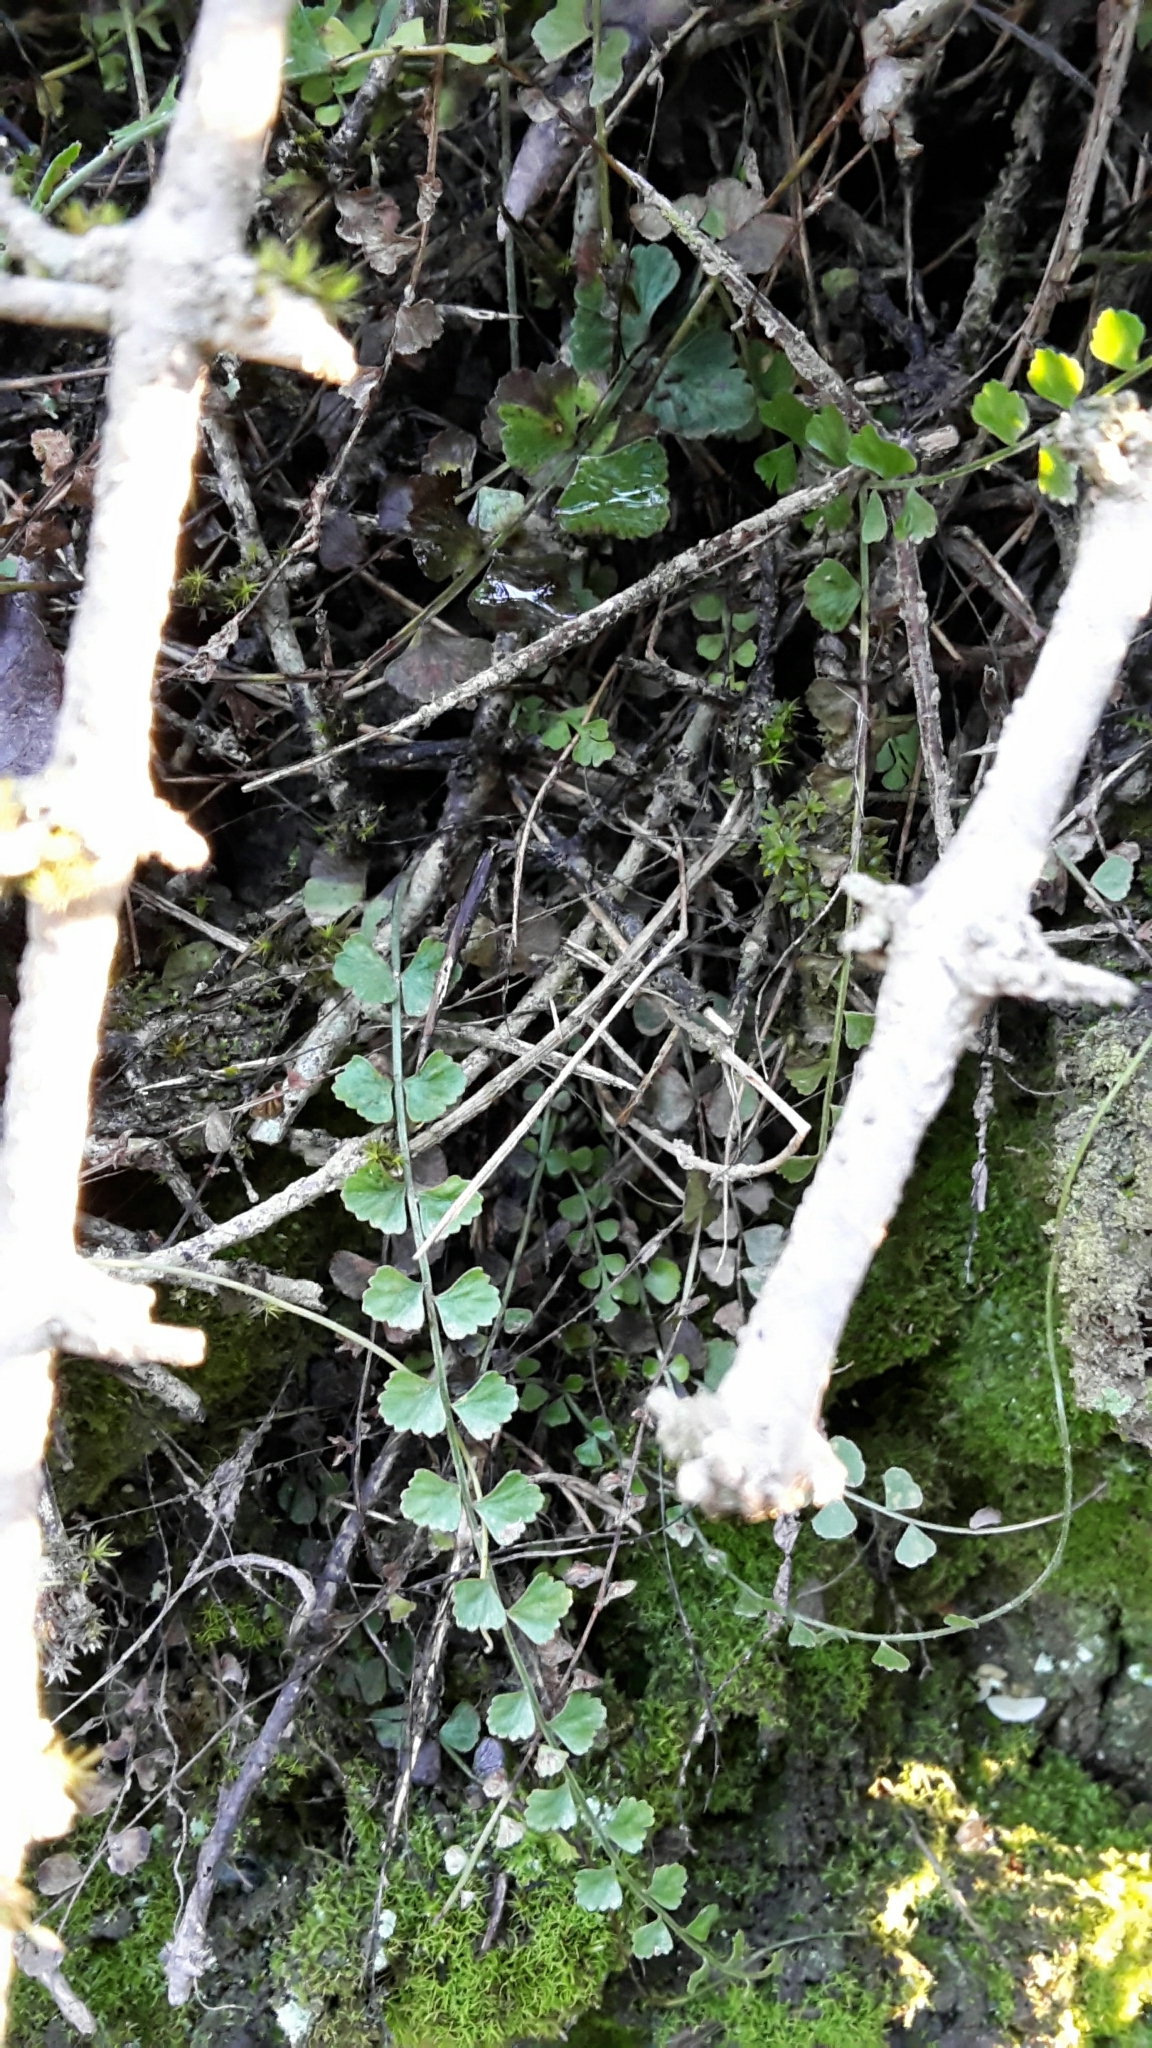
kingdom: Plantae
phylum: Tracheophyta
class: Polypodiopsida
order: Polypodiales
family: Aspleniaceae
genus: Asplenium
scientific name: Asplenium flabellifolium
